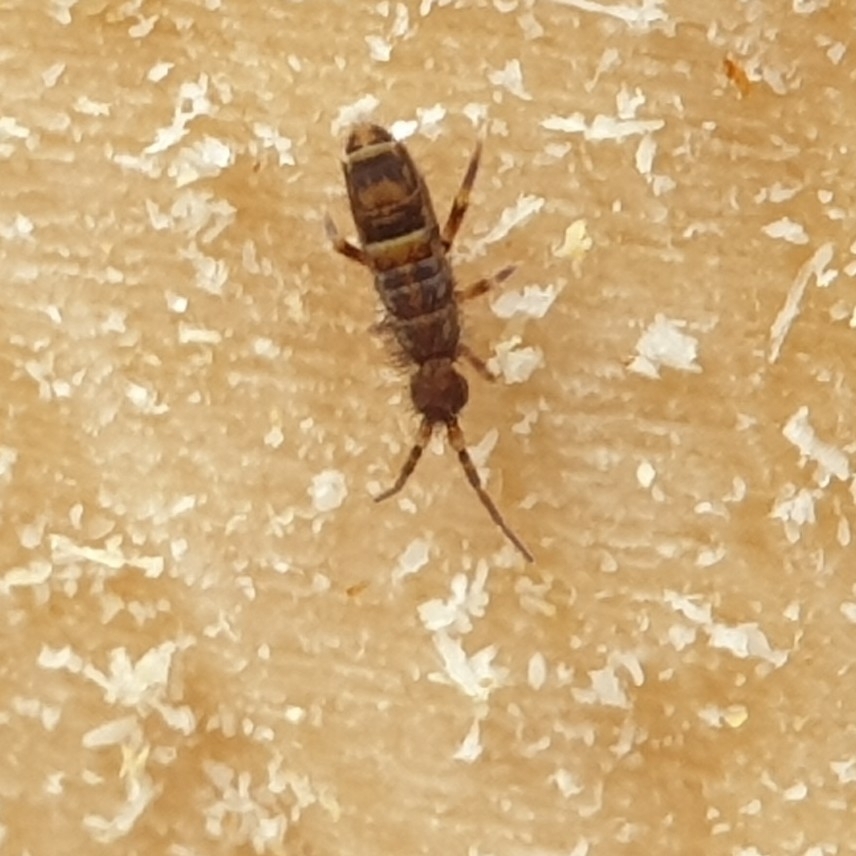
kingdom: Animalia
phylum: Arthropoda
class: Collembola
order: Entomobryomorpha
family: Orchesellidae
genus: Orchesella
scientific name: Orchesella cincta
